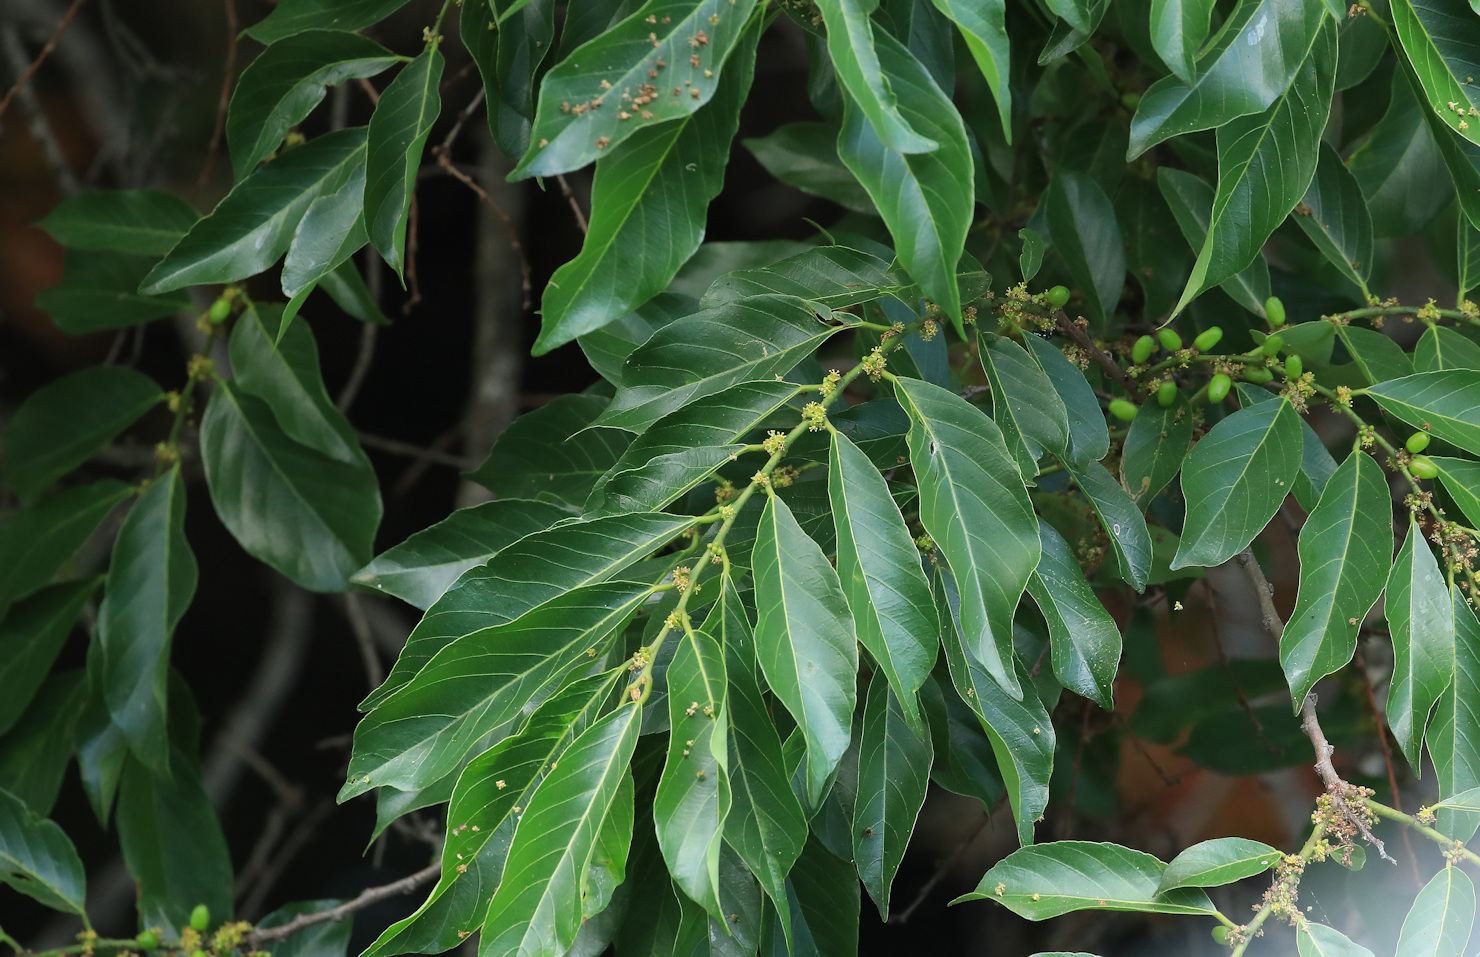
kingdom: Plantae
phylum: Tracheophyta
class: Magnoliopsida
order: Malpighiales
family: Phyllanthaceae
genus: Bridelia
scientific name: Bridelia micrantha
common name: Bridelia
